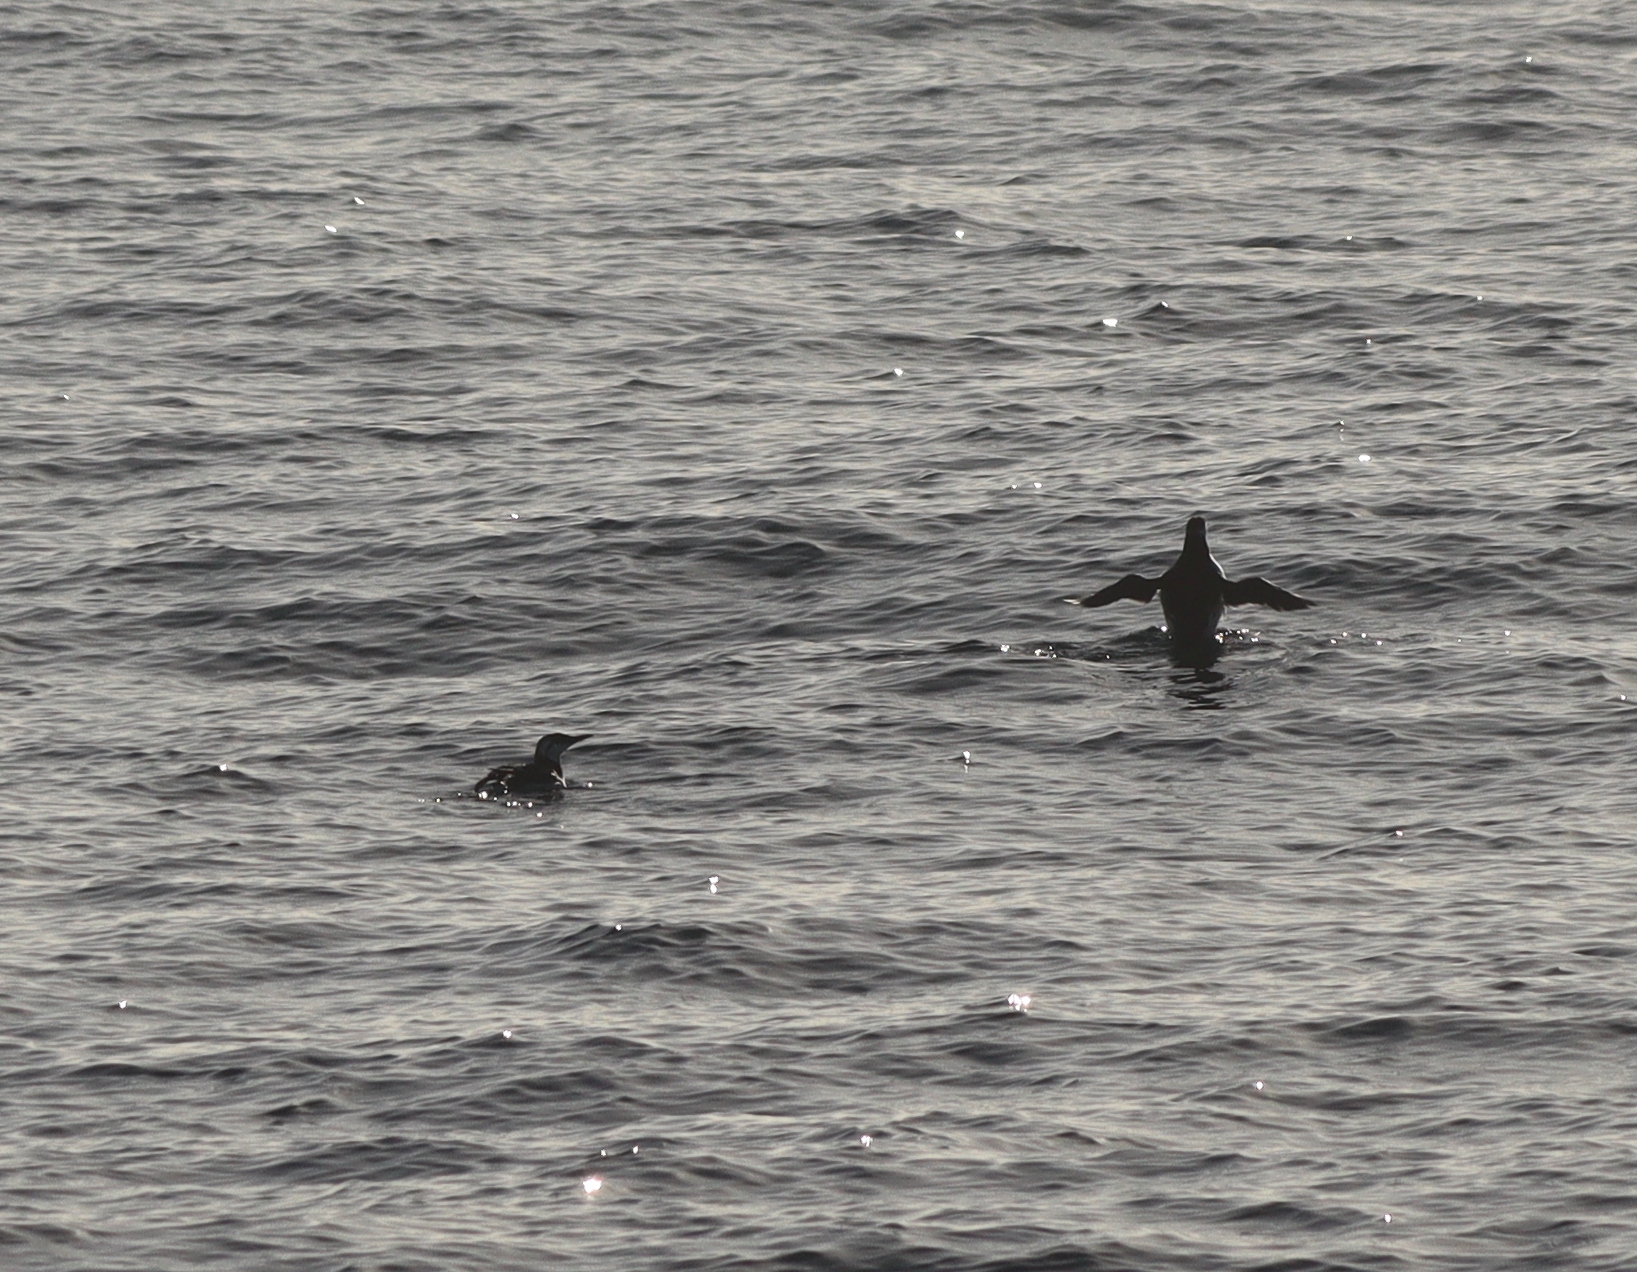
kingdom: Animalia
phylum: Chordata
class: Aves
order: Charadriiformes
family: Alcidae
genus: Uria
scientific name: Uria aalge
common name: Common murre
